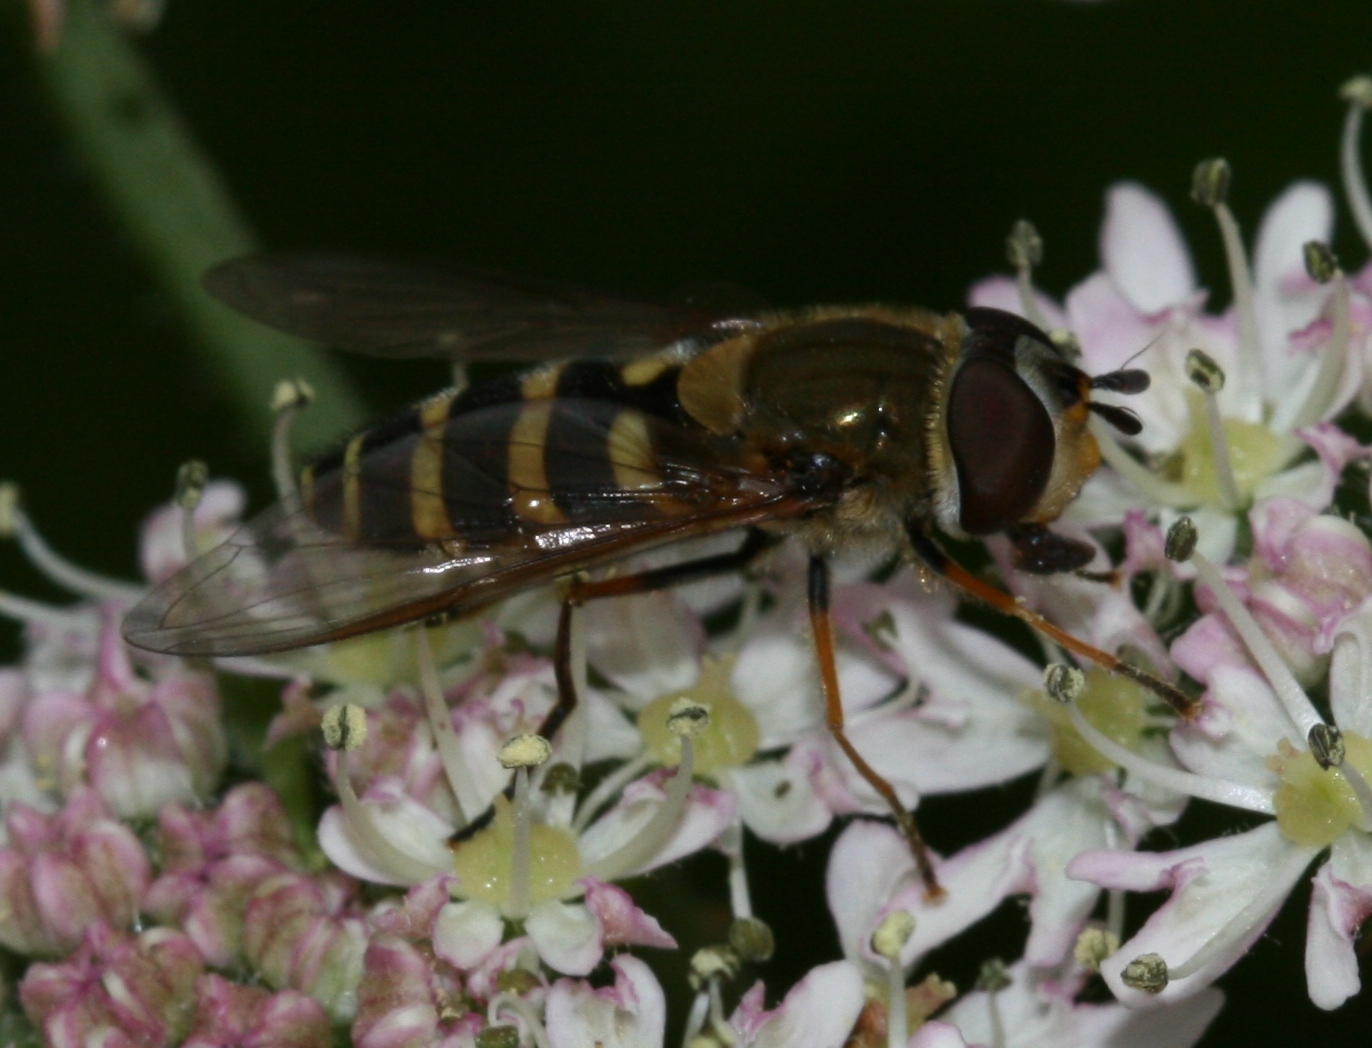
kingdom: Animalia
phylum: Arthropoda
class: Insecta
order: Diptera
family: Syrphidae
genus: Syrphus
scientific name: Syrphus
